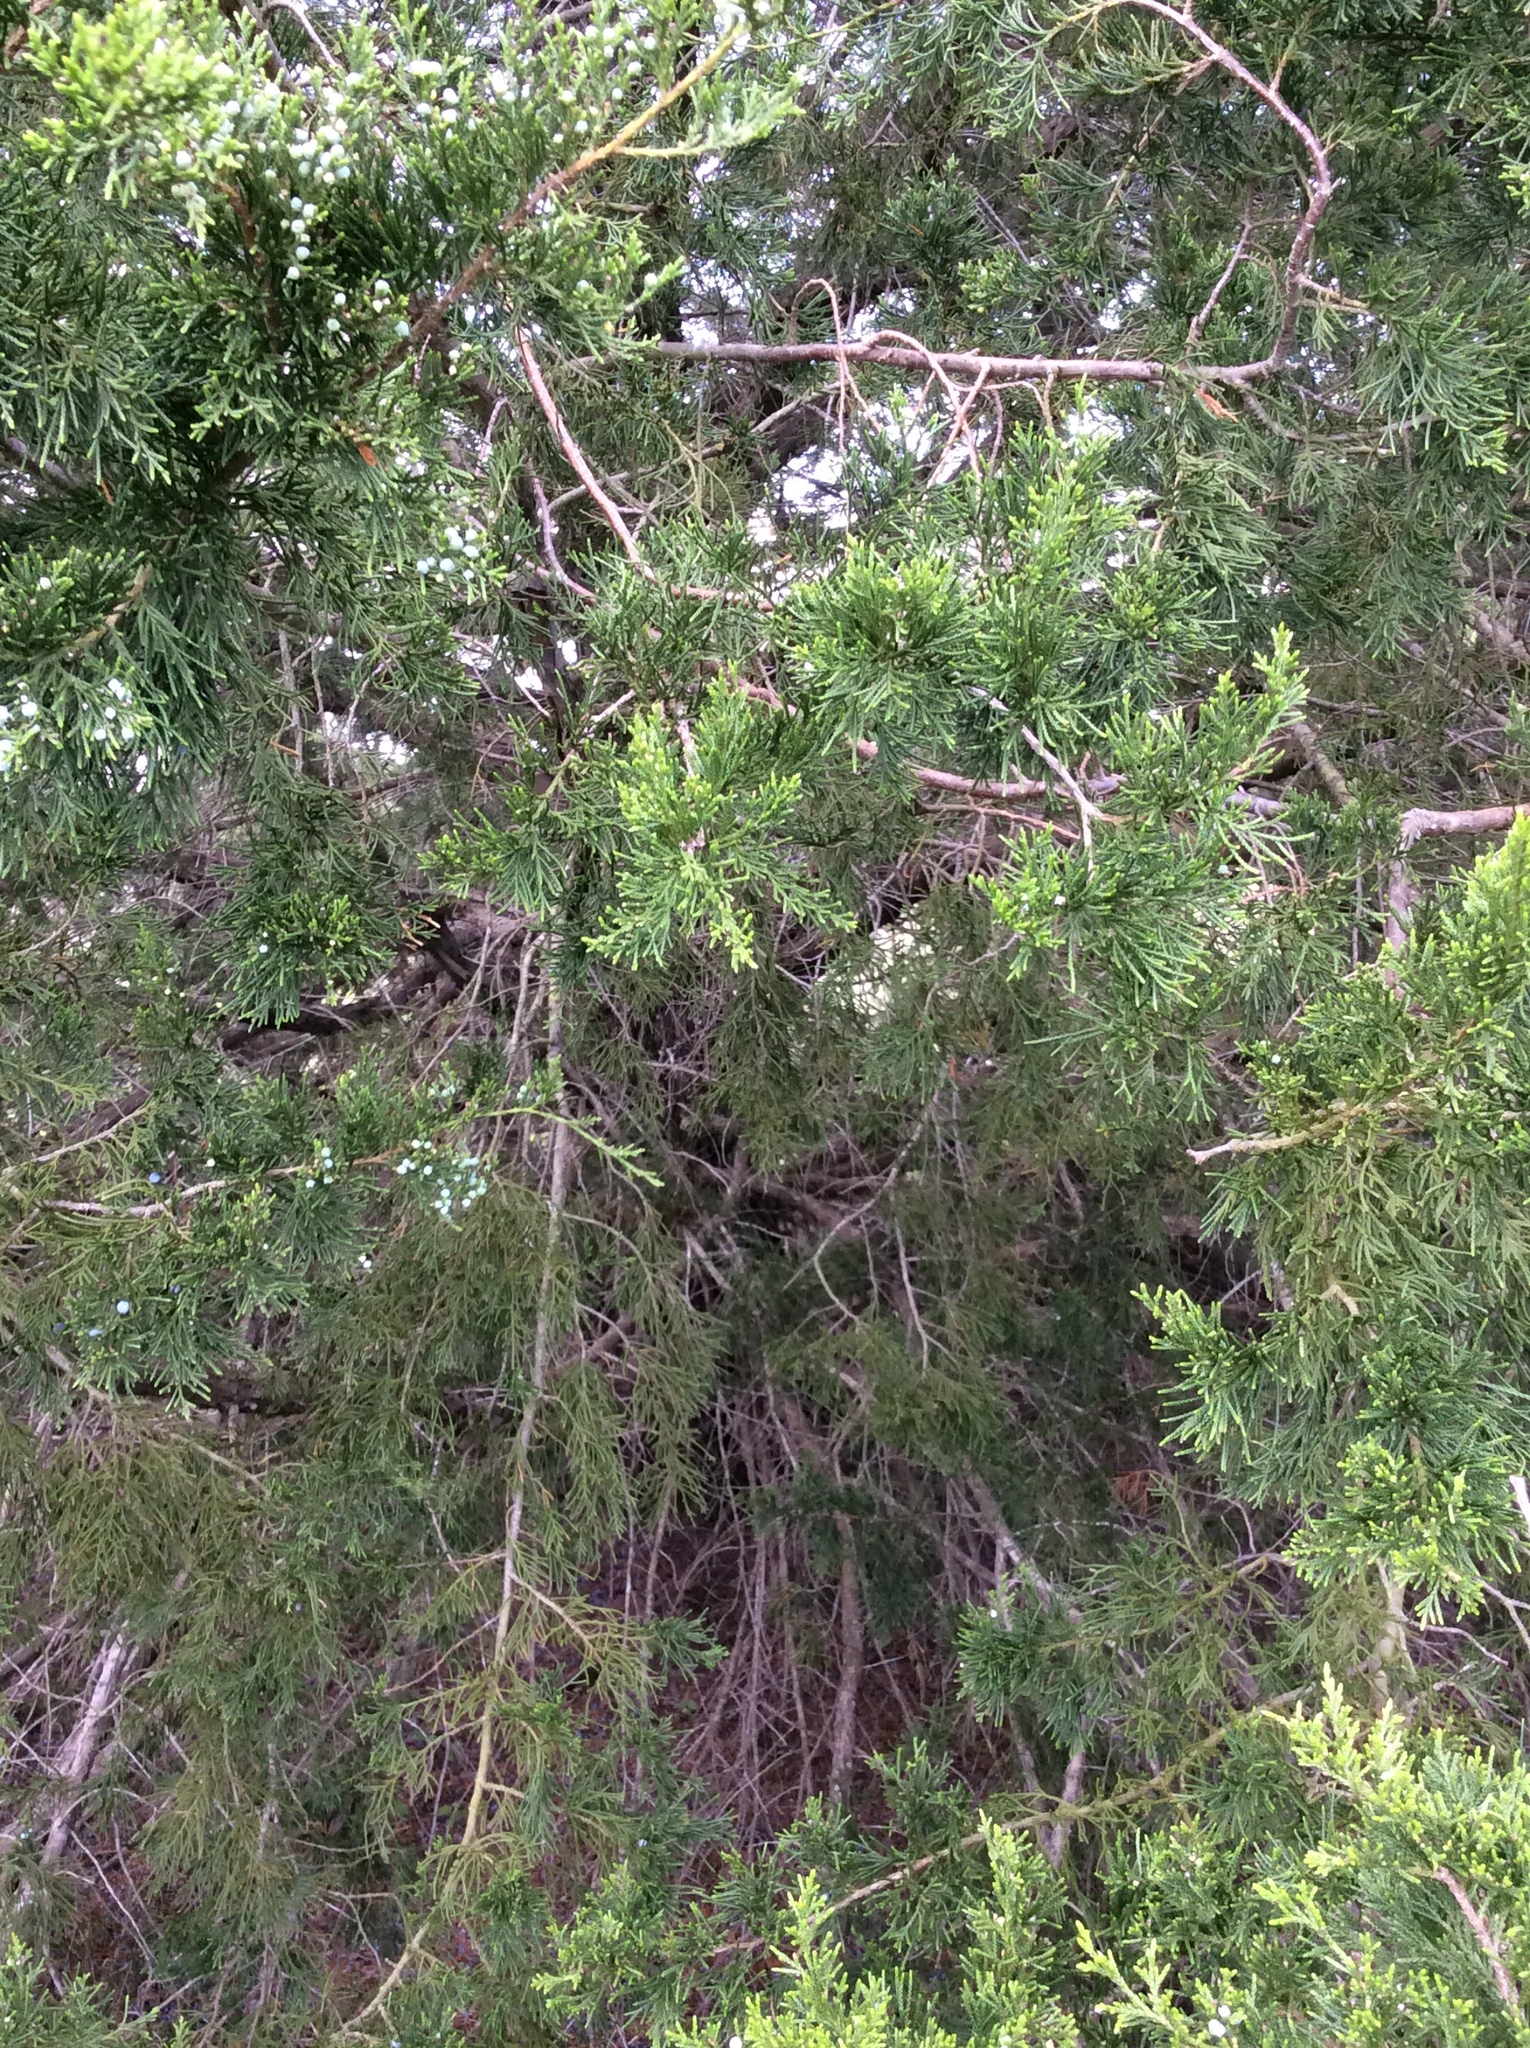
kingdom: Plantae
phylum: Tracheophyta
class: Pinopsida
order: Pinales
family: Cupressaceae
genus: Juniperus
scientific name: Juniperus virginiana
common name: Red juniper
